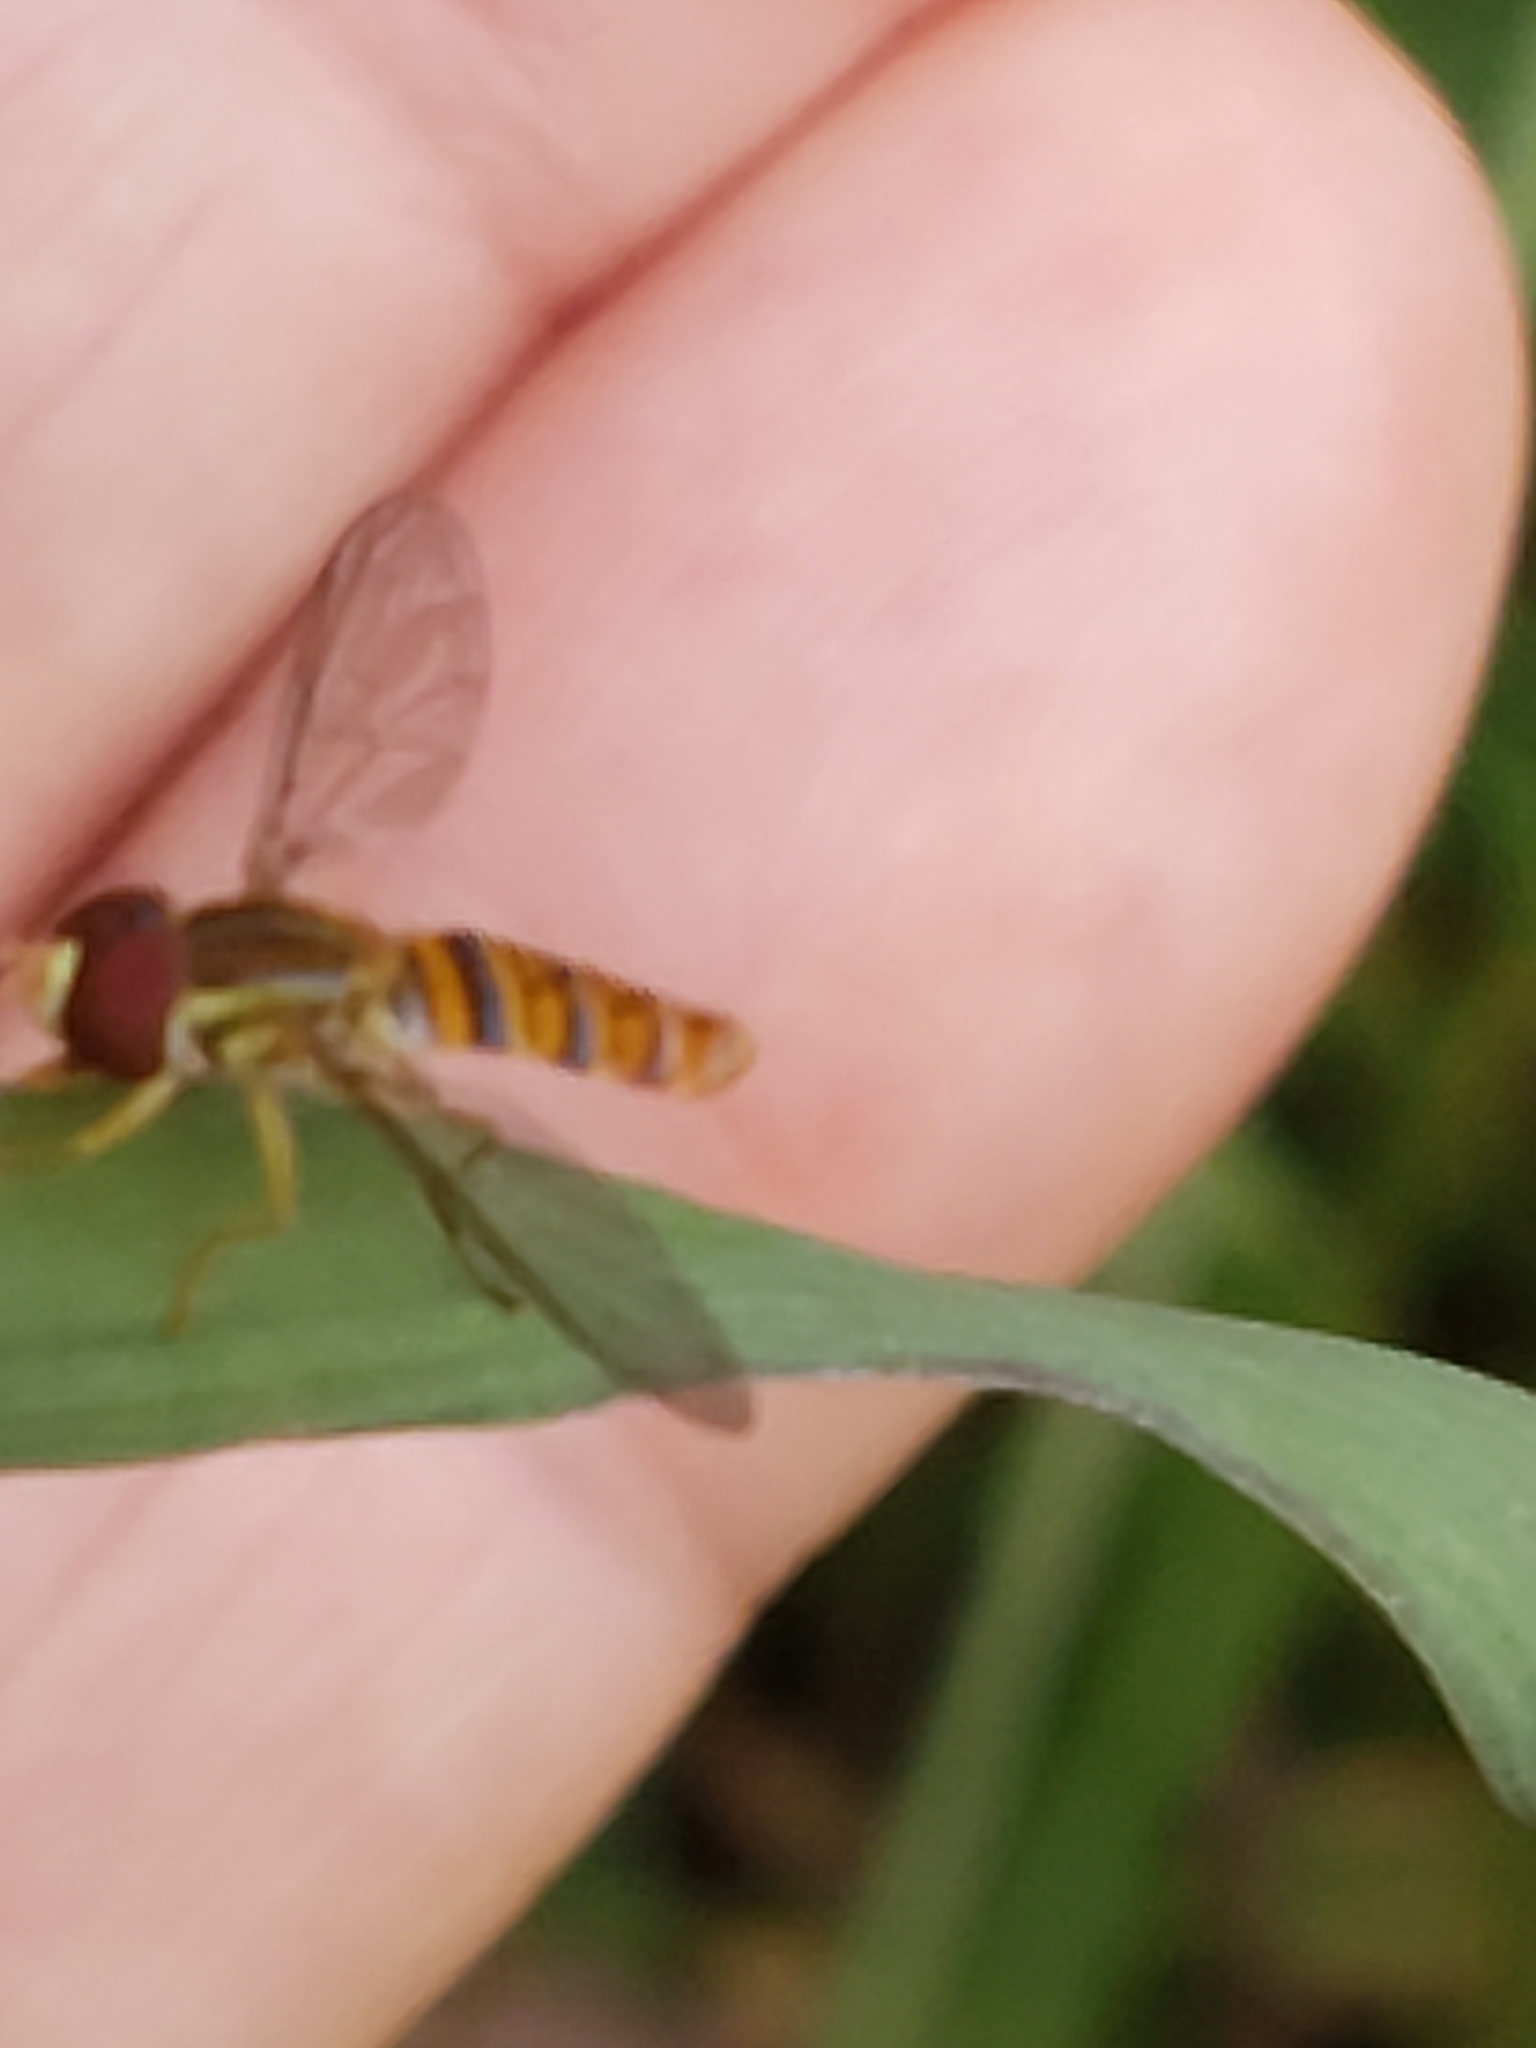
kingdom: Animalia
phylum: Arthropoda
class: Insecta
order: Diptera
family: Syrphidae
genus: Toxomerus
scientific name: Toxomerus politus
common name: Maize calligrapher
